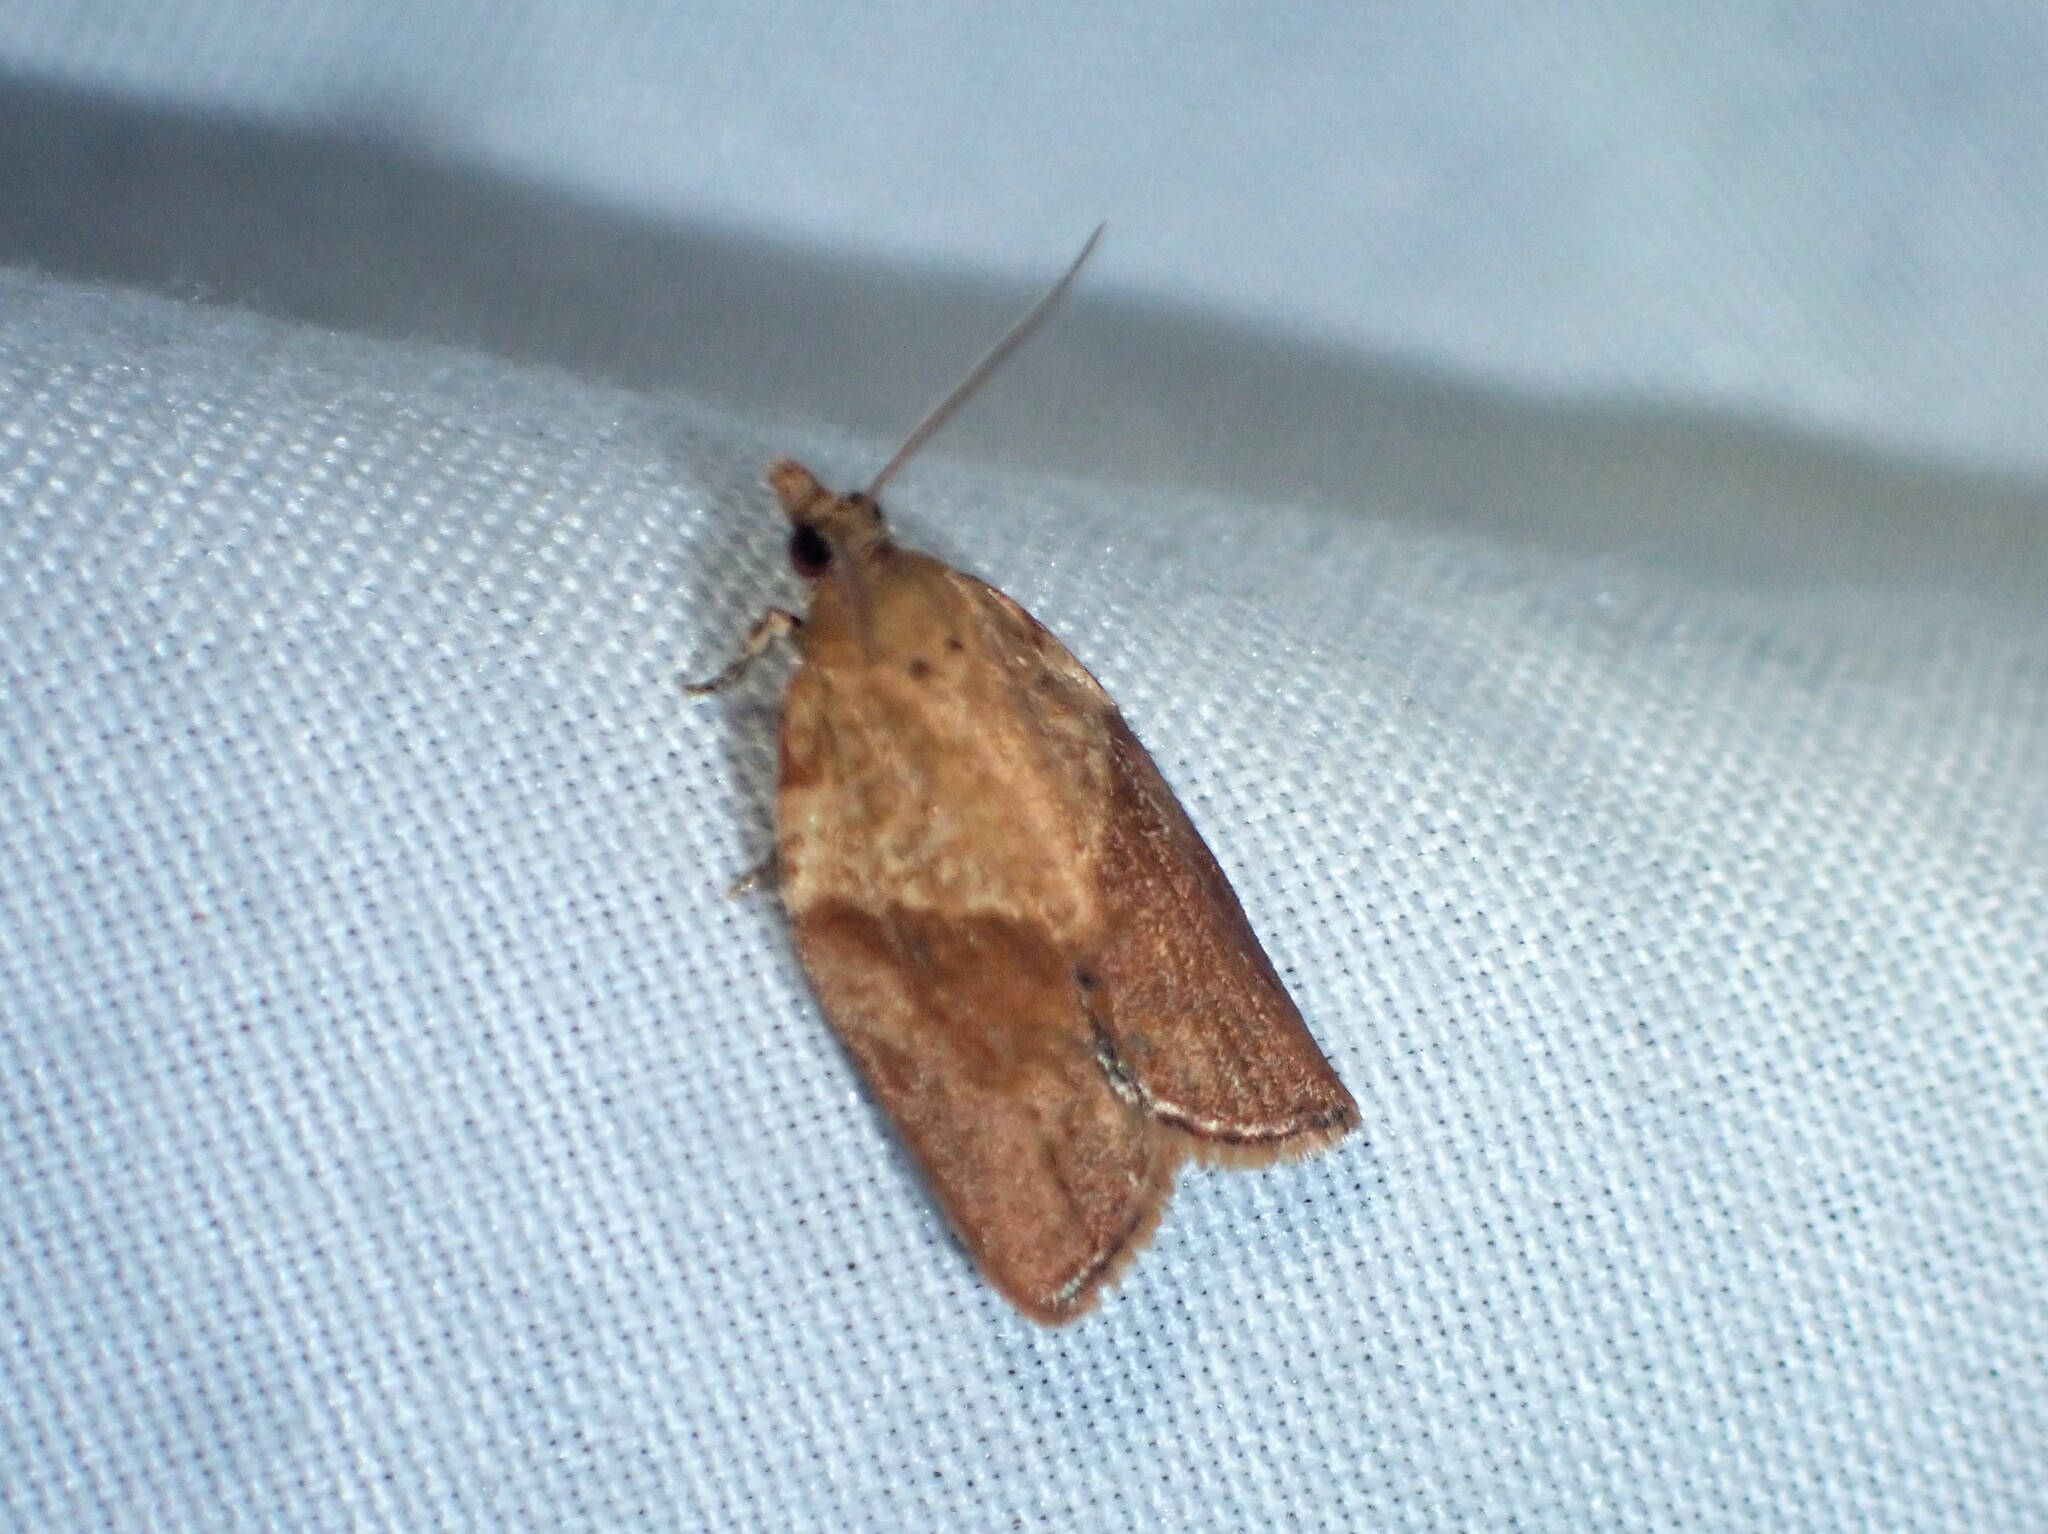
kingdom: Animalia
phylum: Arthropoda
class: Insecta
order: Lepidoptera
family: Tortricidae
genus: Epiphyas
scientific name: Epiphyas postvittana
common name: Light brown apple moth
